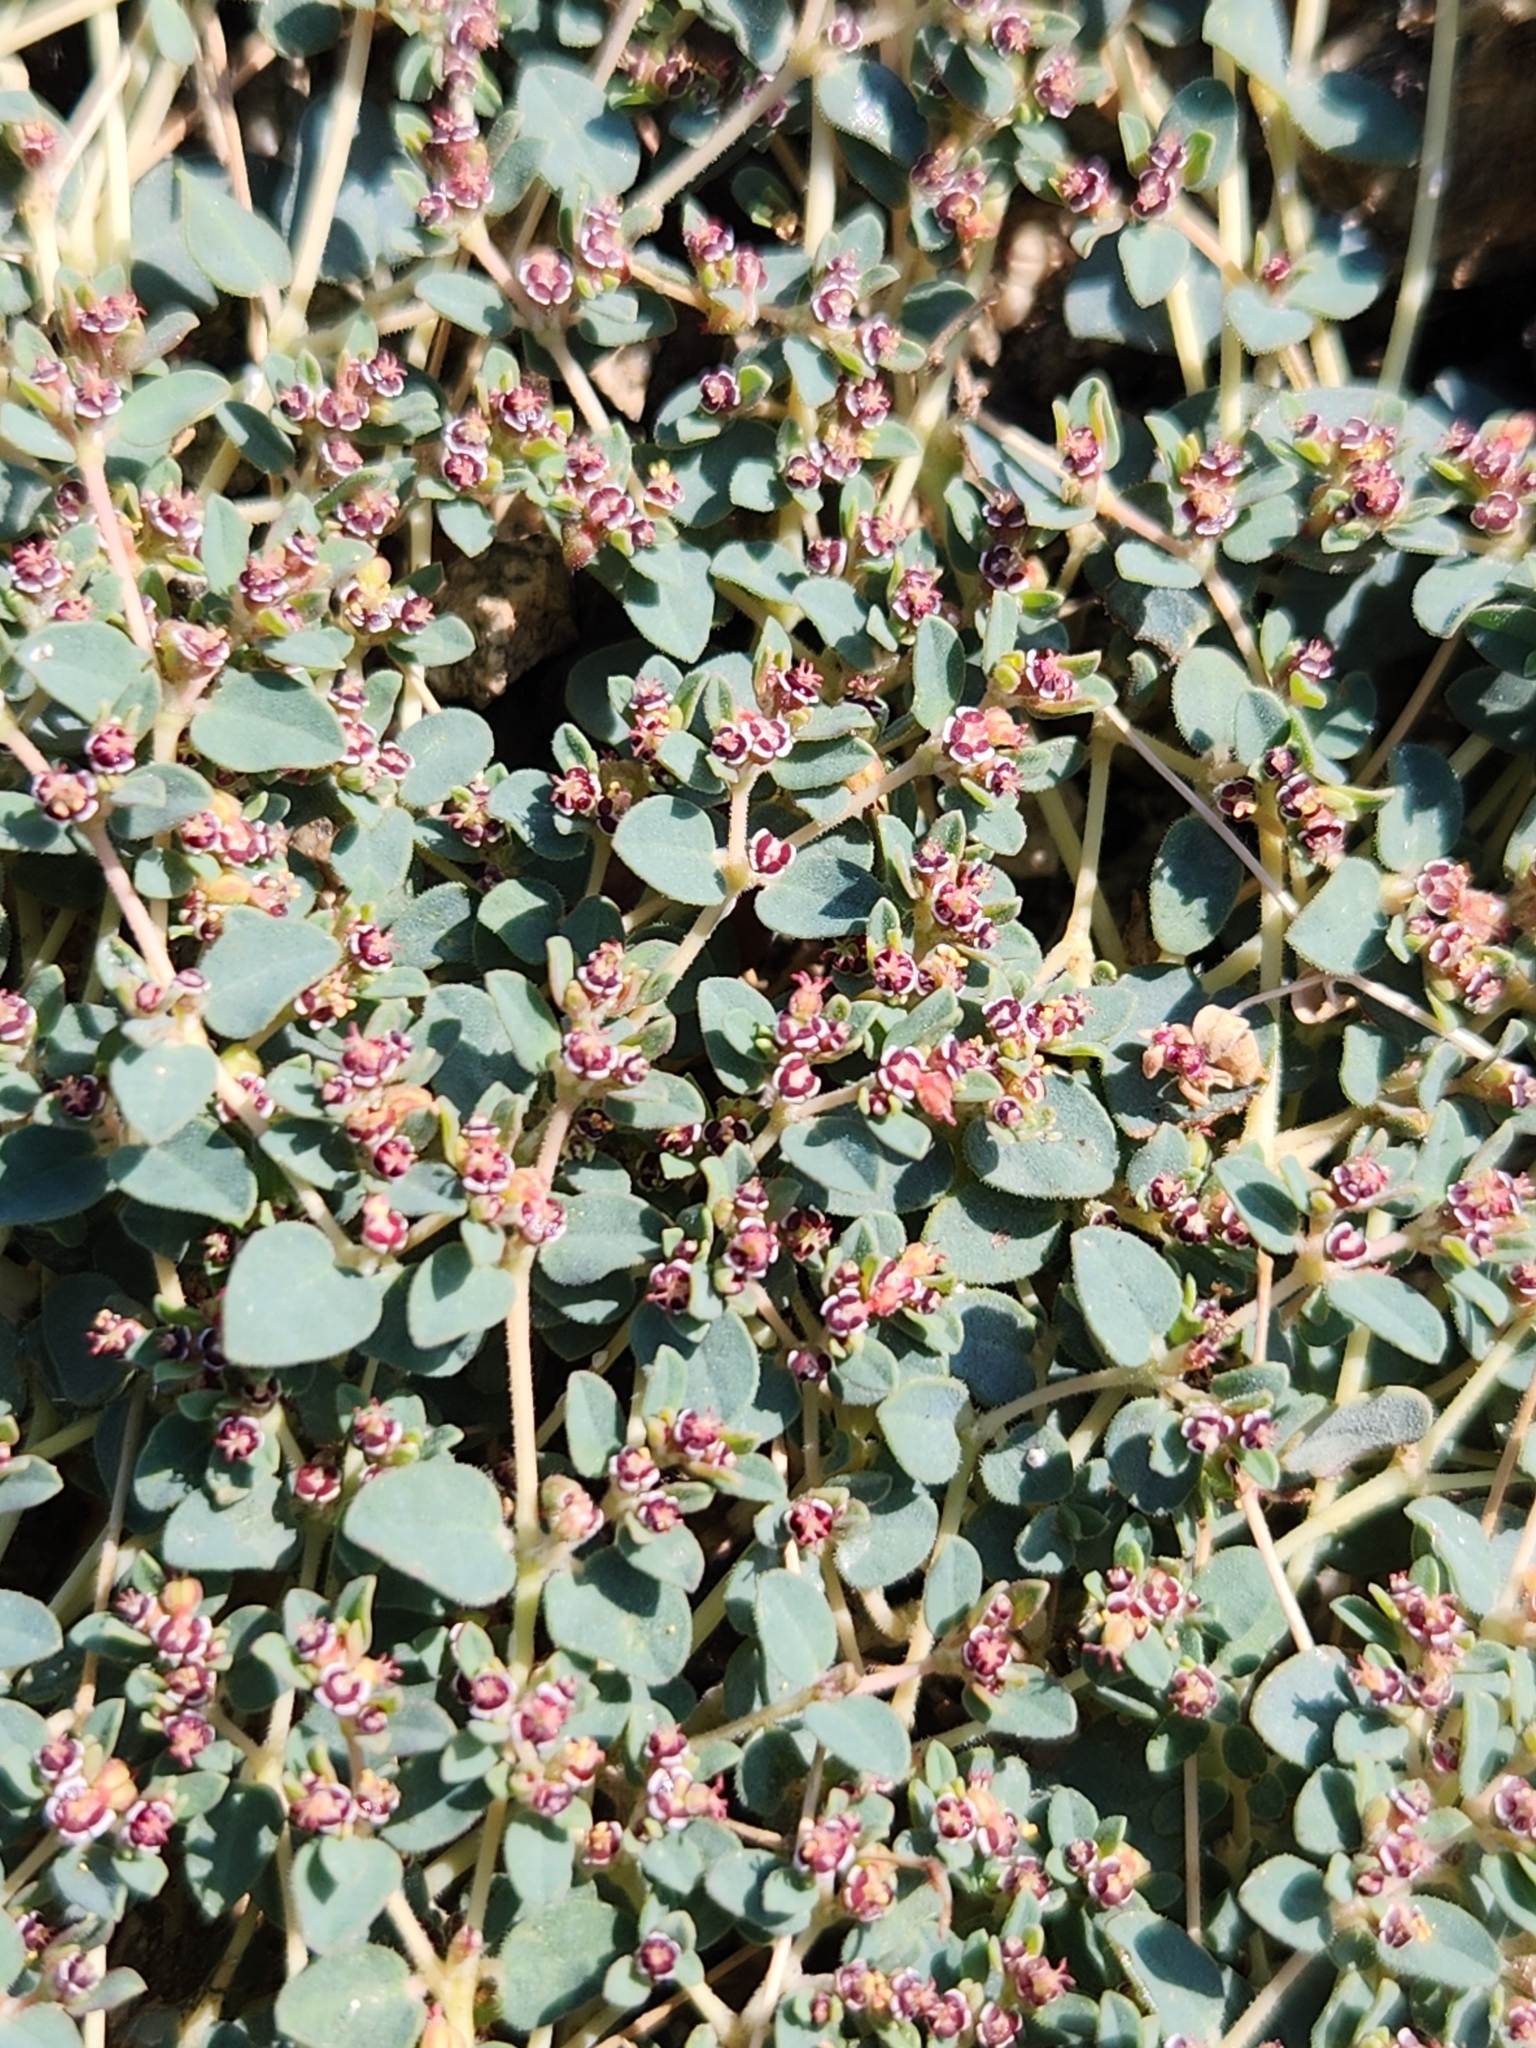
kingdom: Plantae
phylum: Tracheophyta
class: Magnoliopsida
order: Malpighiales
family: Euphorbiaceae
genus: Euphorbia
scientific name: Euphorbia polycarpa
